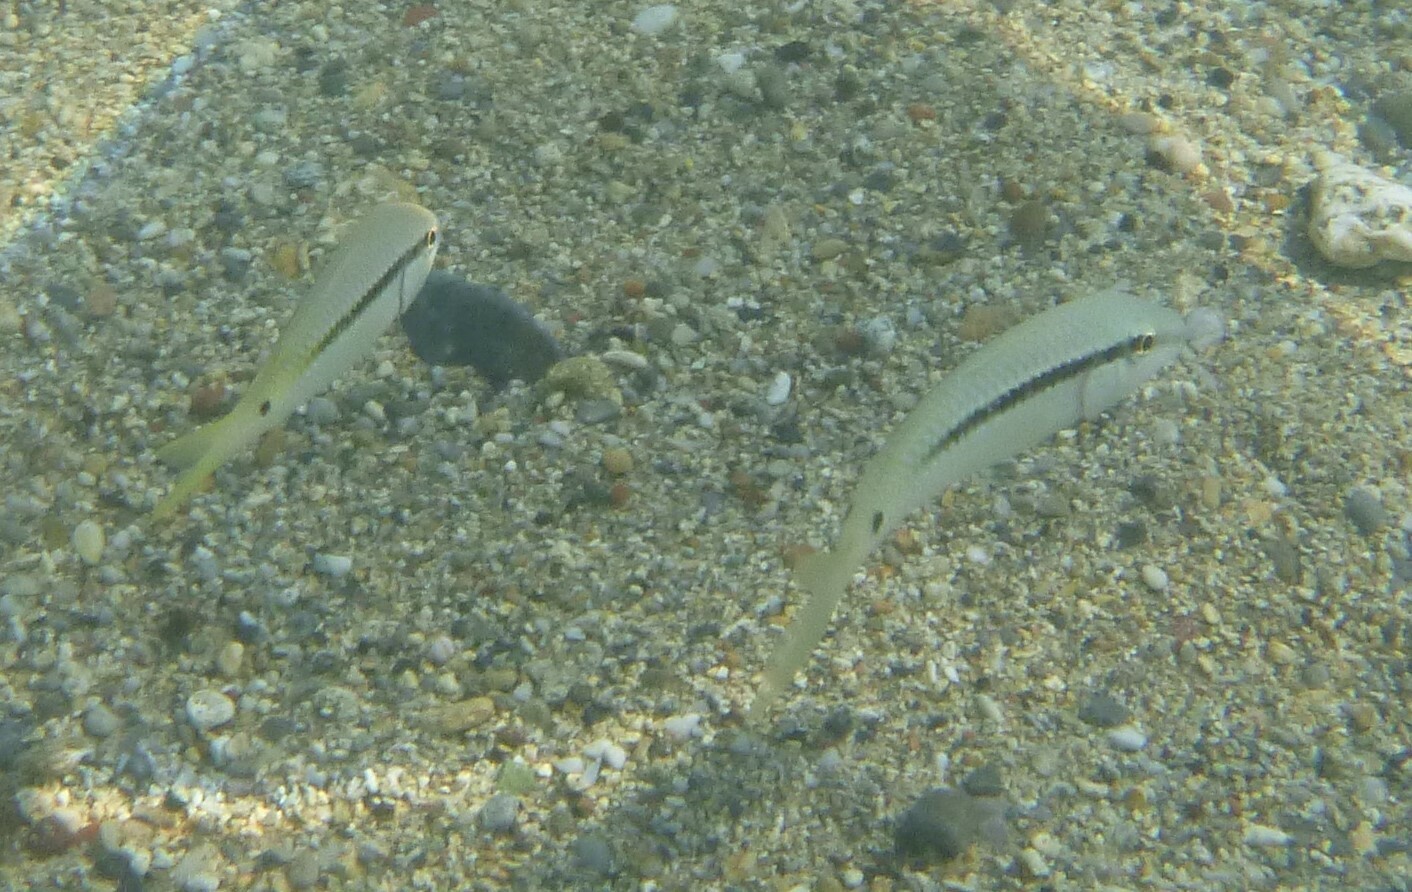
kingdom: Animalia
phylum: Chordata
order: Perciformes
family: Mullidae
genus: Parupeneus
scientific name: Parupeneus forsskali
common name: Red sea goatfish
